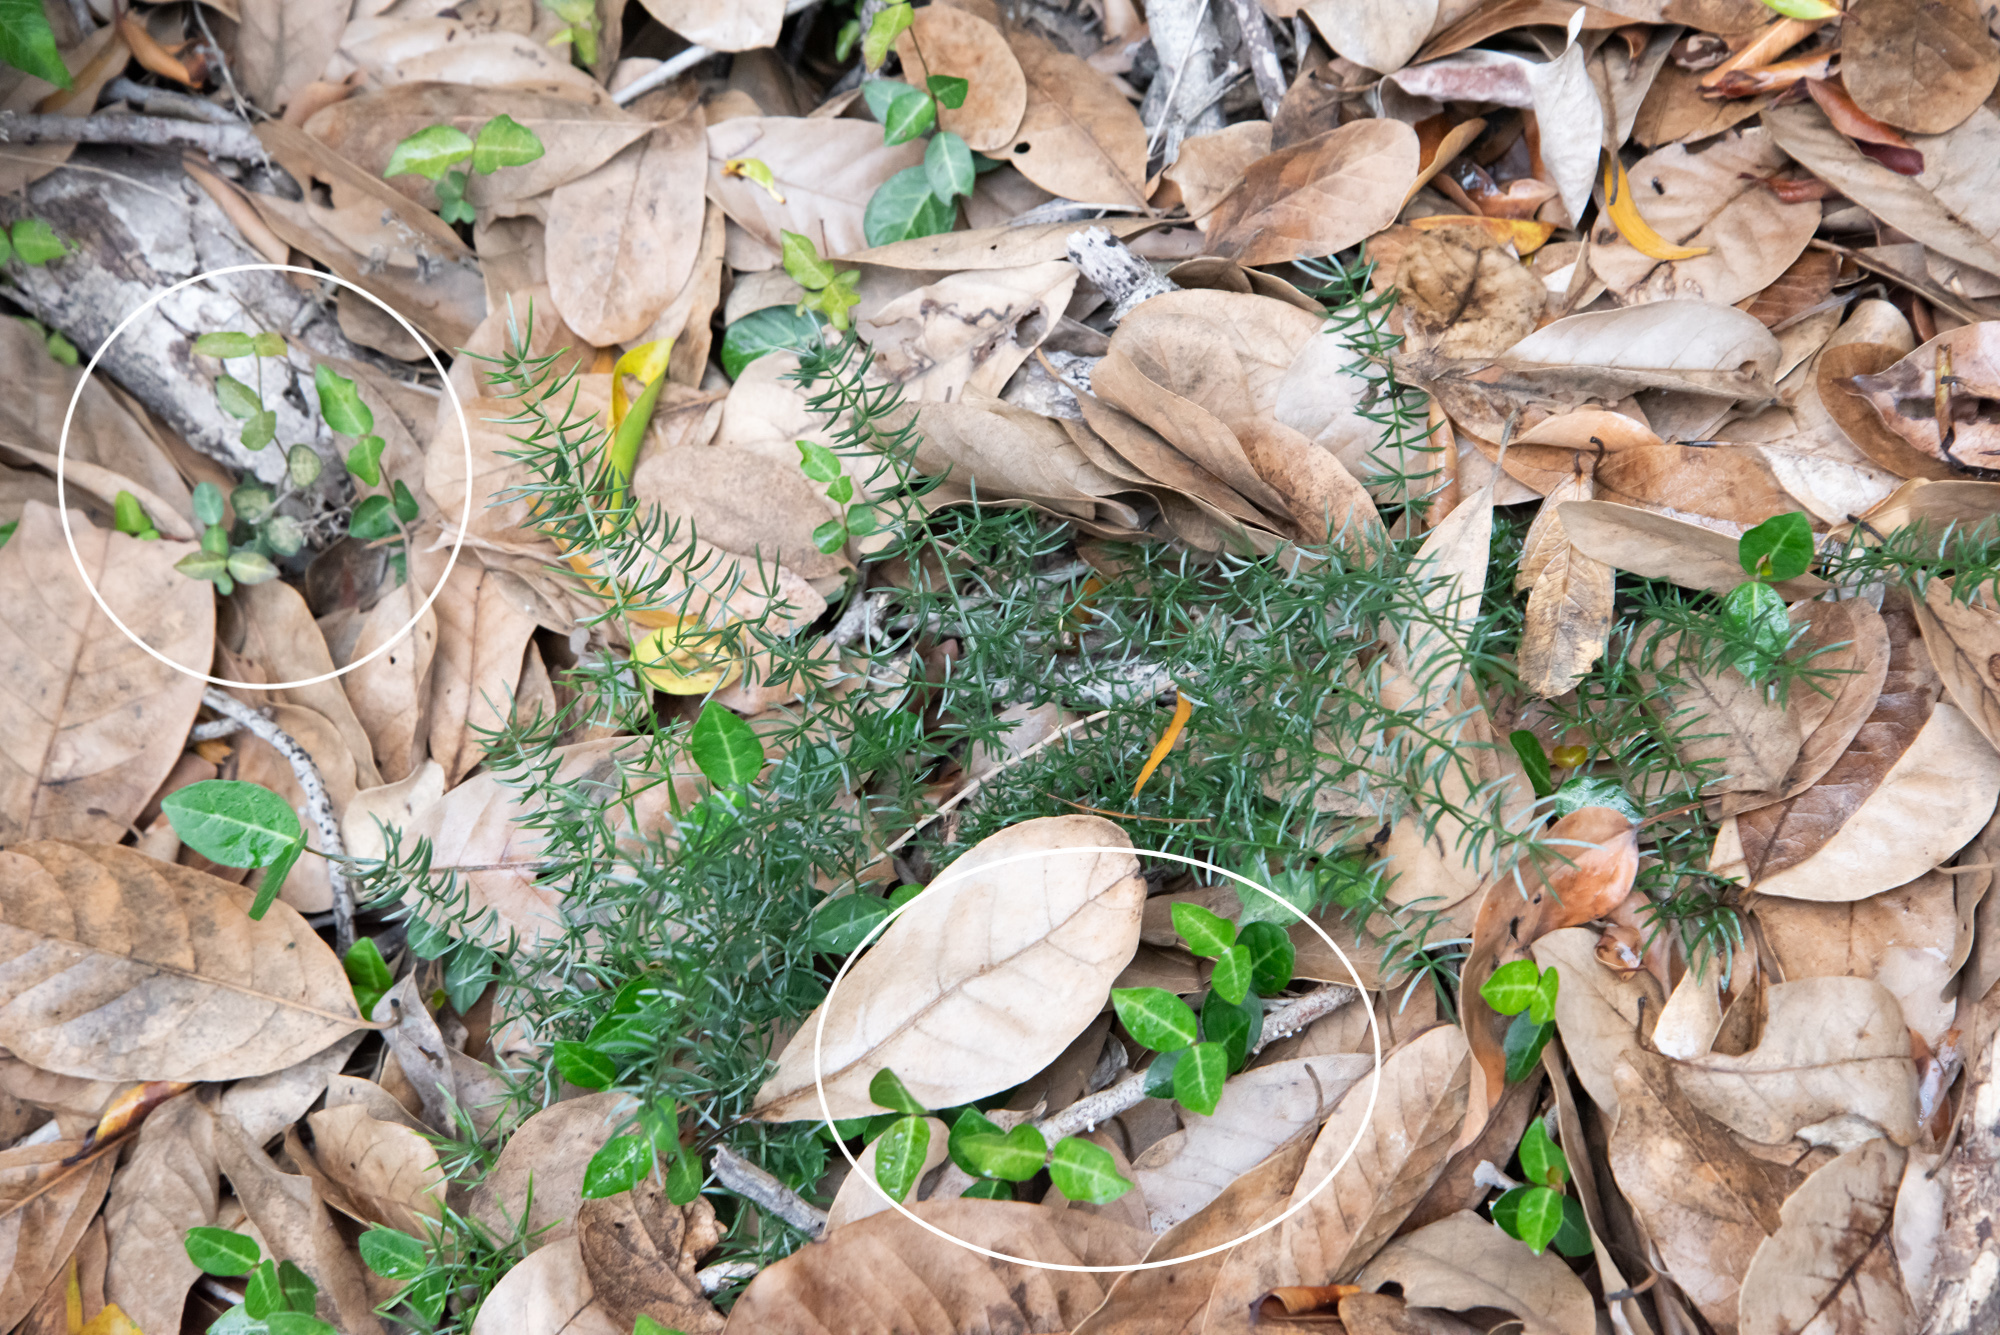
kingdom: Plantae
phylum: Tracheophyta
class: Magnoliopsida
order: Gentianales
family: Apocynaceae
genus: Trachelospermum
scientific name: Trachelospermum jasminoides
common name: Confederate jasmine
